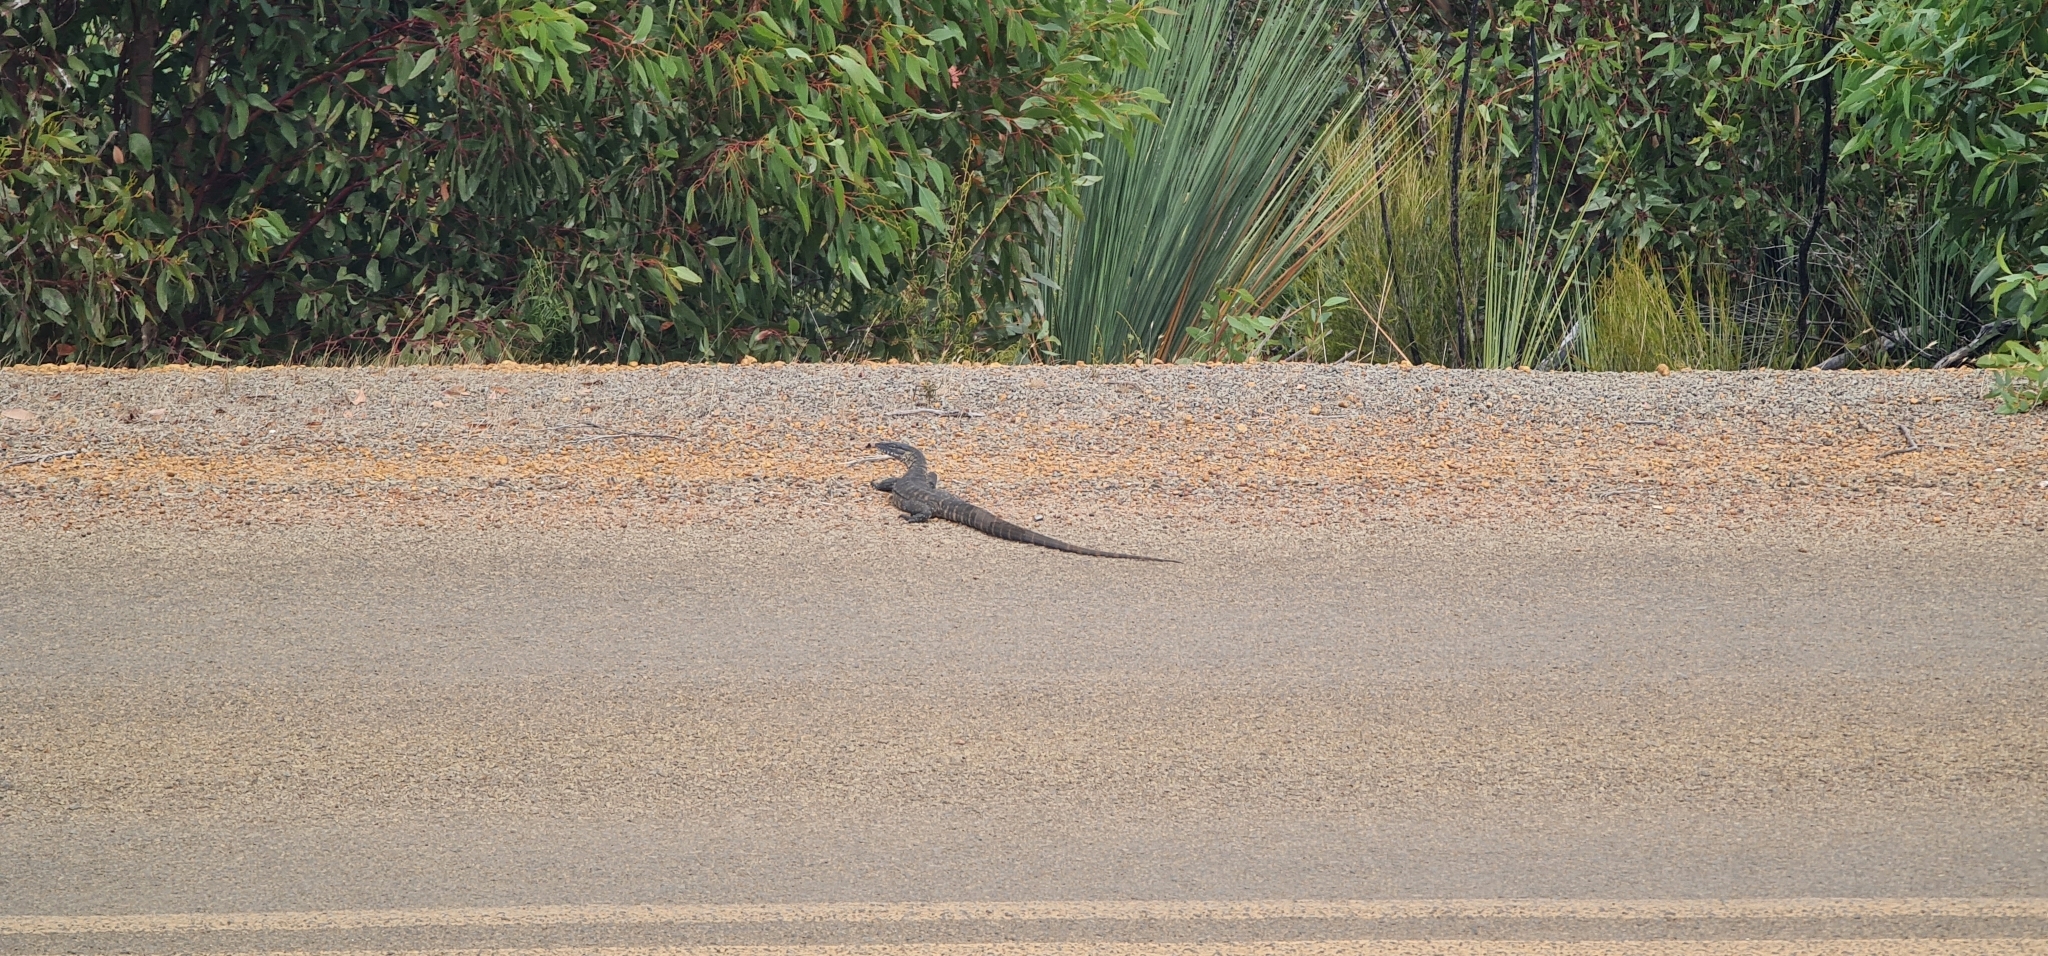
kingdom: Animalia
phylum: Chordata
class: Squamata
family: Varanidae
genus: Varanus
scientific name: Varanus rosenbergi
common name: Heath monitor
